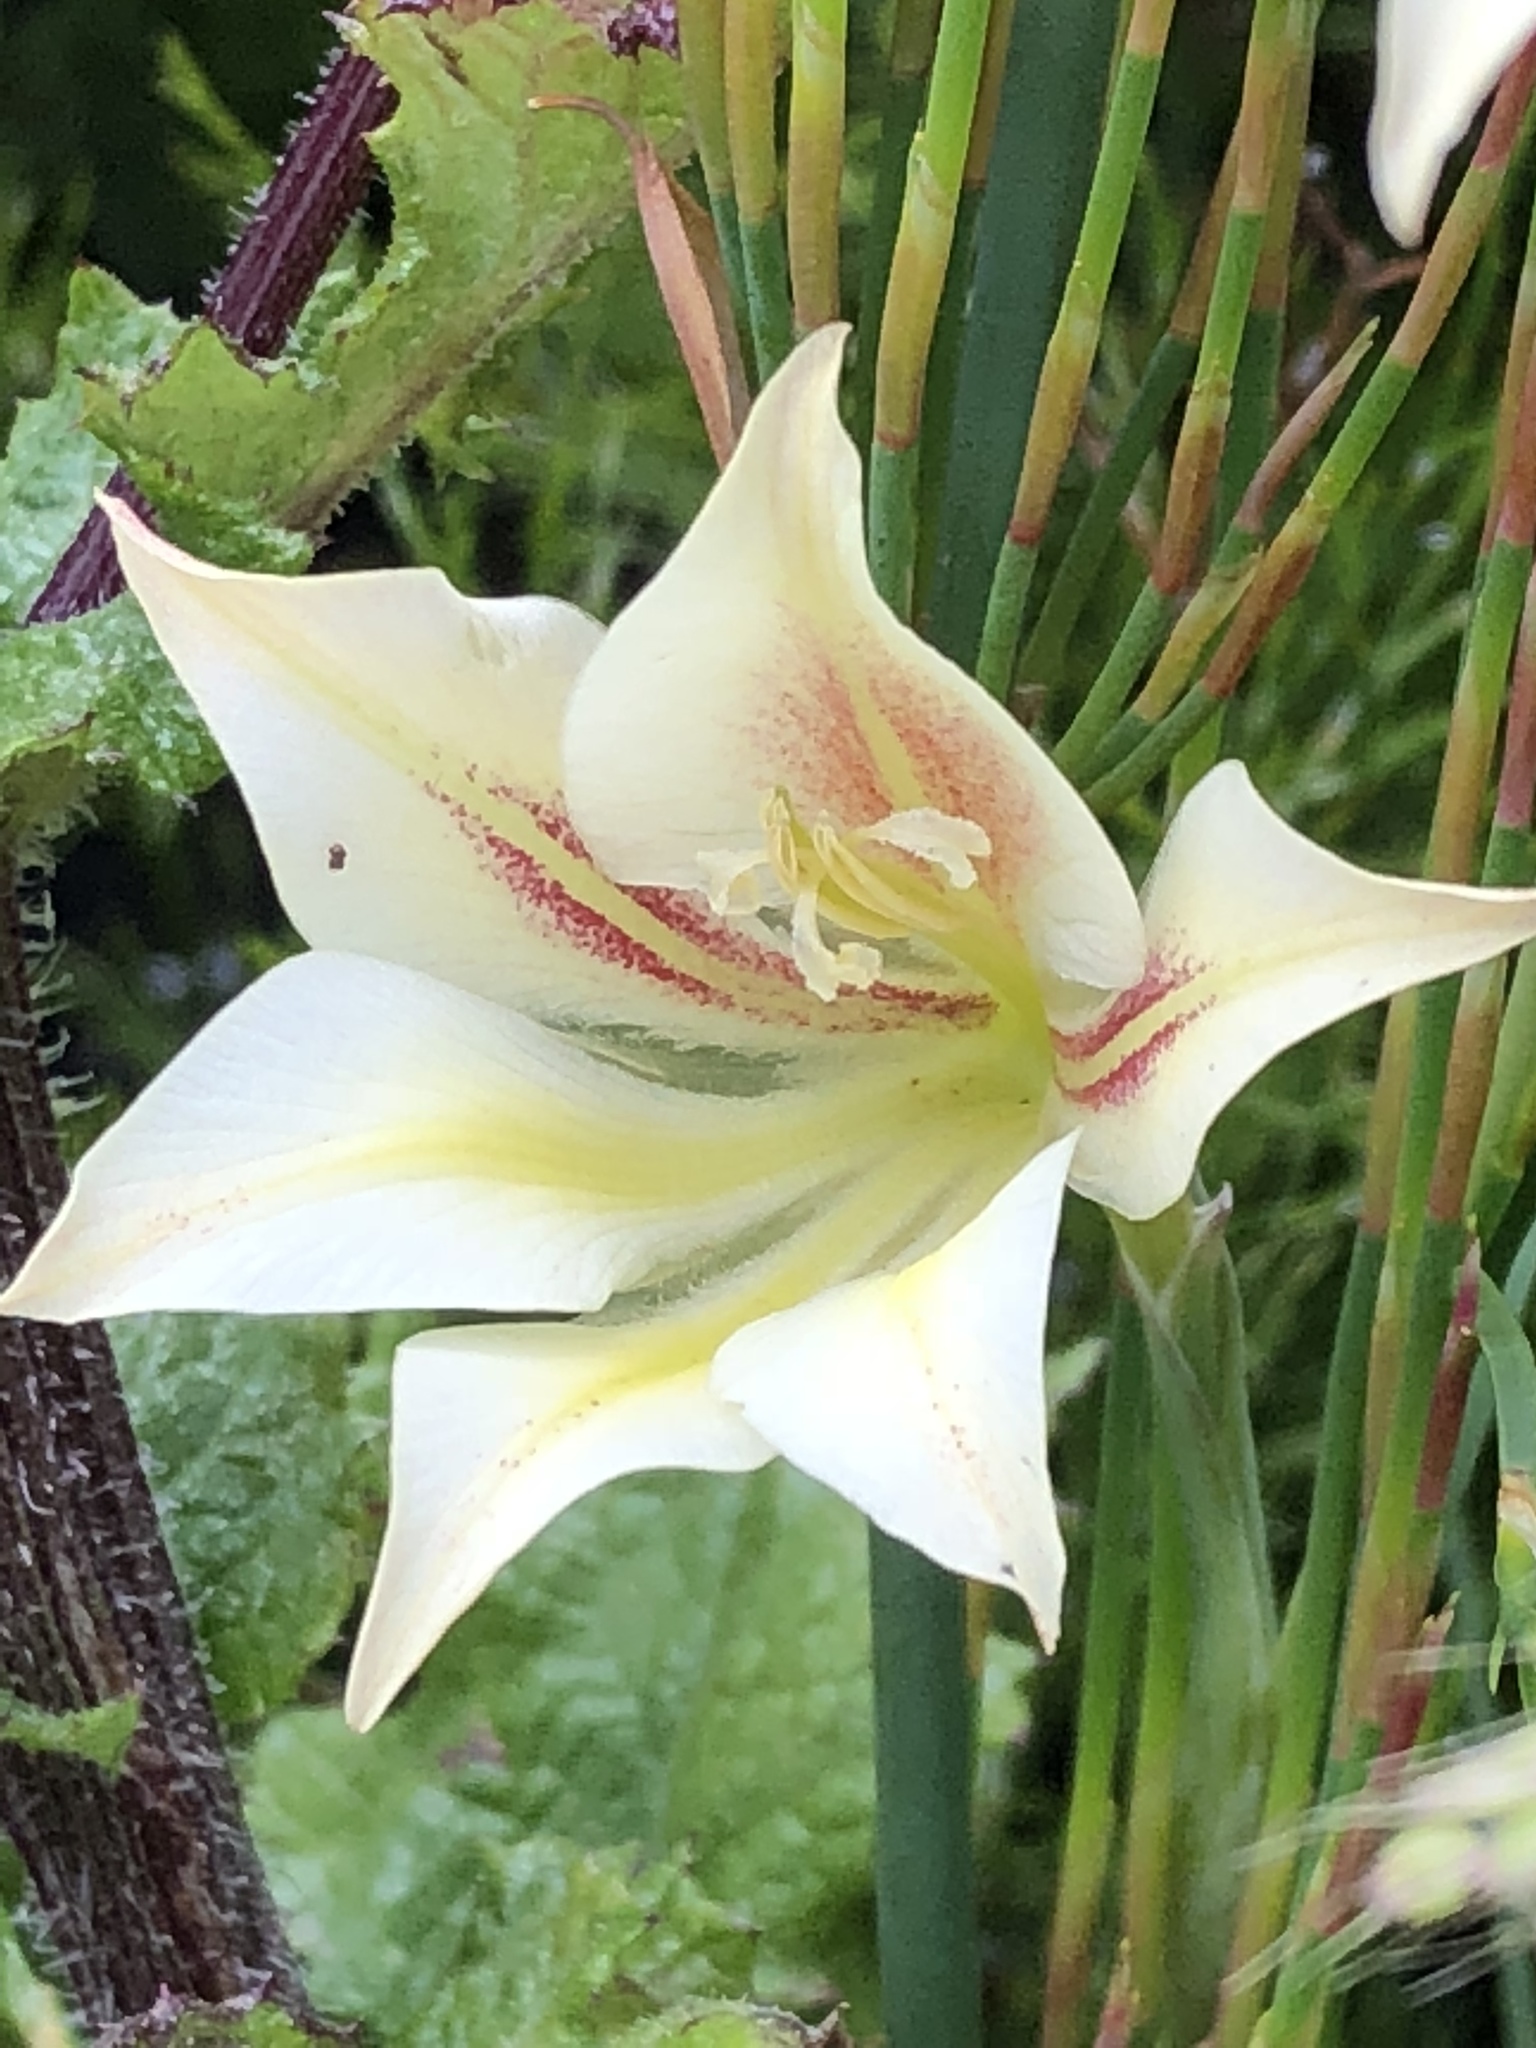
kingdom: Plantae
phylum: Tracheophyta
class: Liliopsida
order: Asparagales
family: Iridaceae
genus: Gladiolus
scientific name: Gladiolus longicollis
